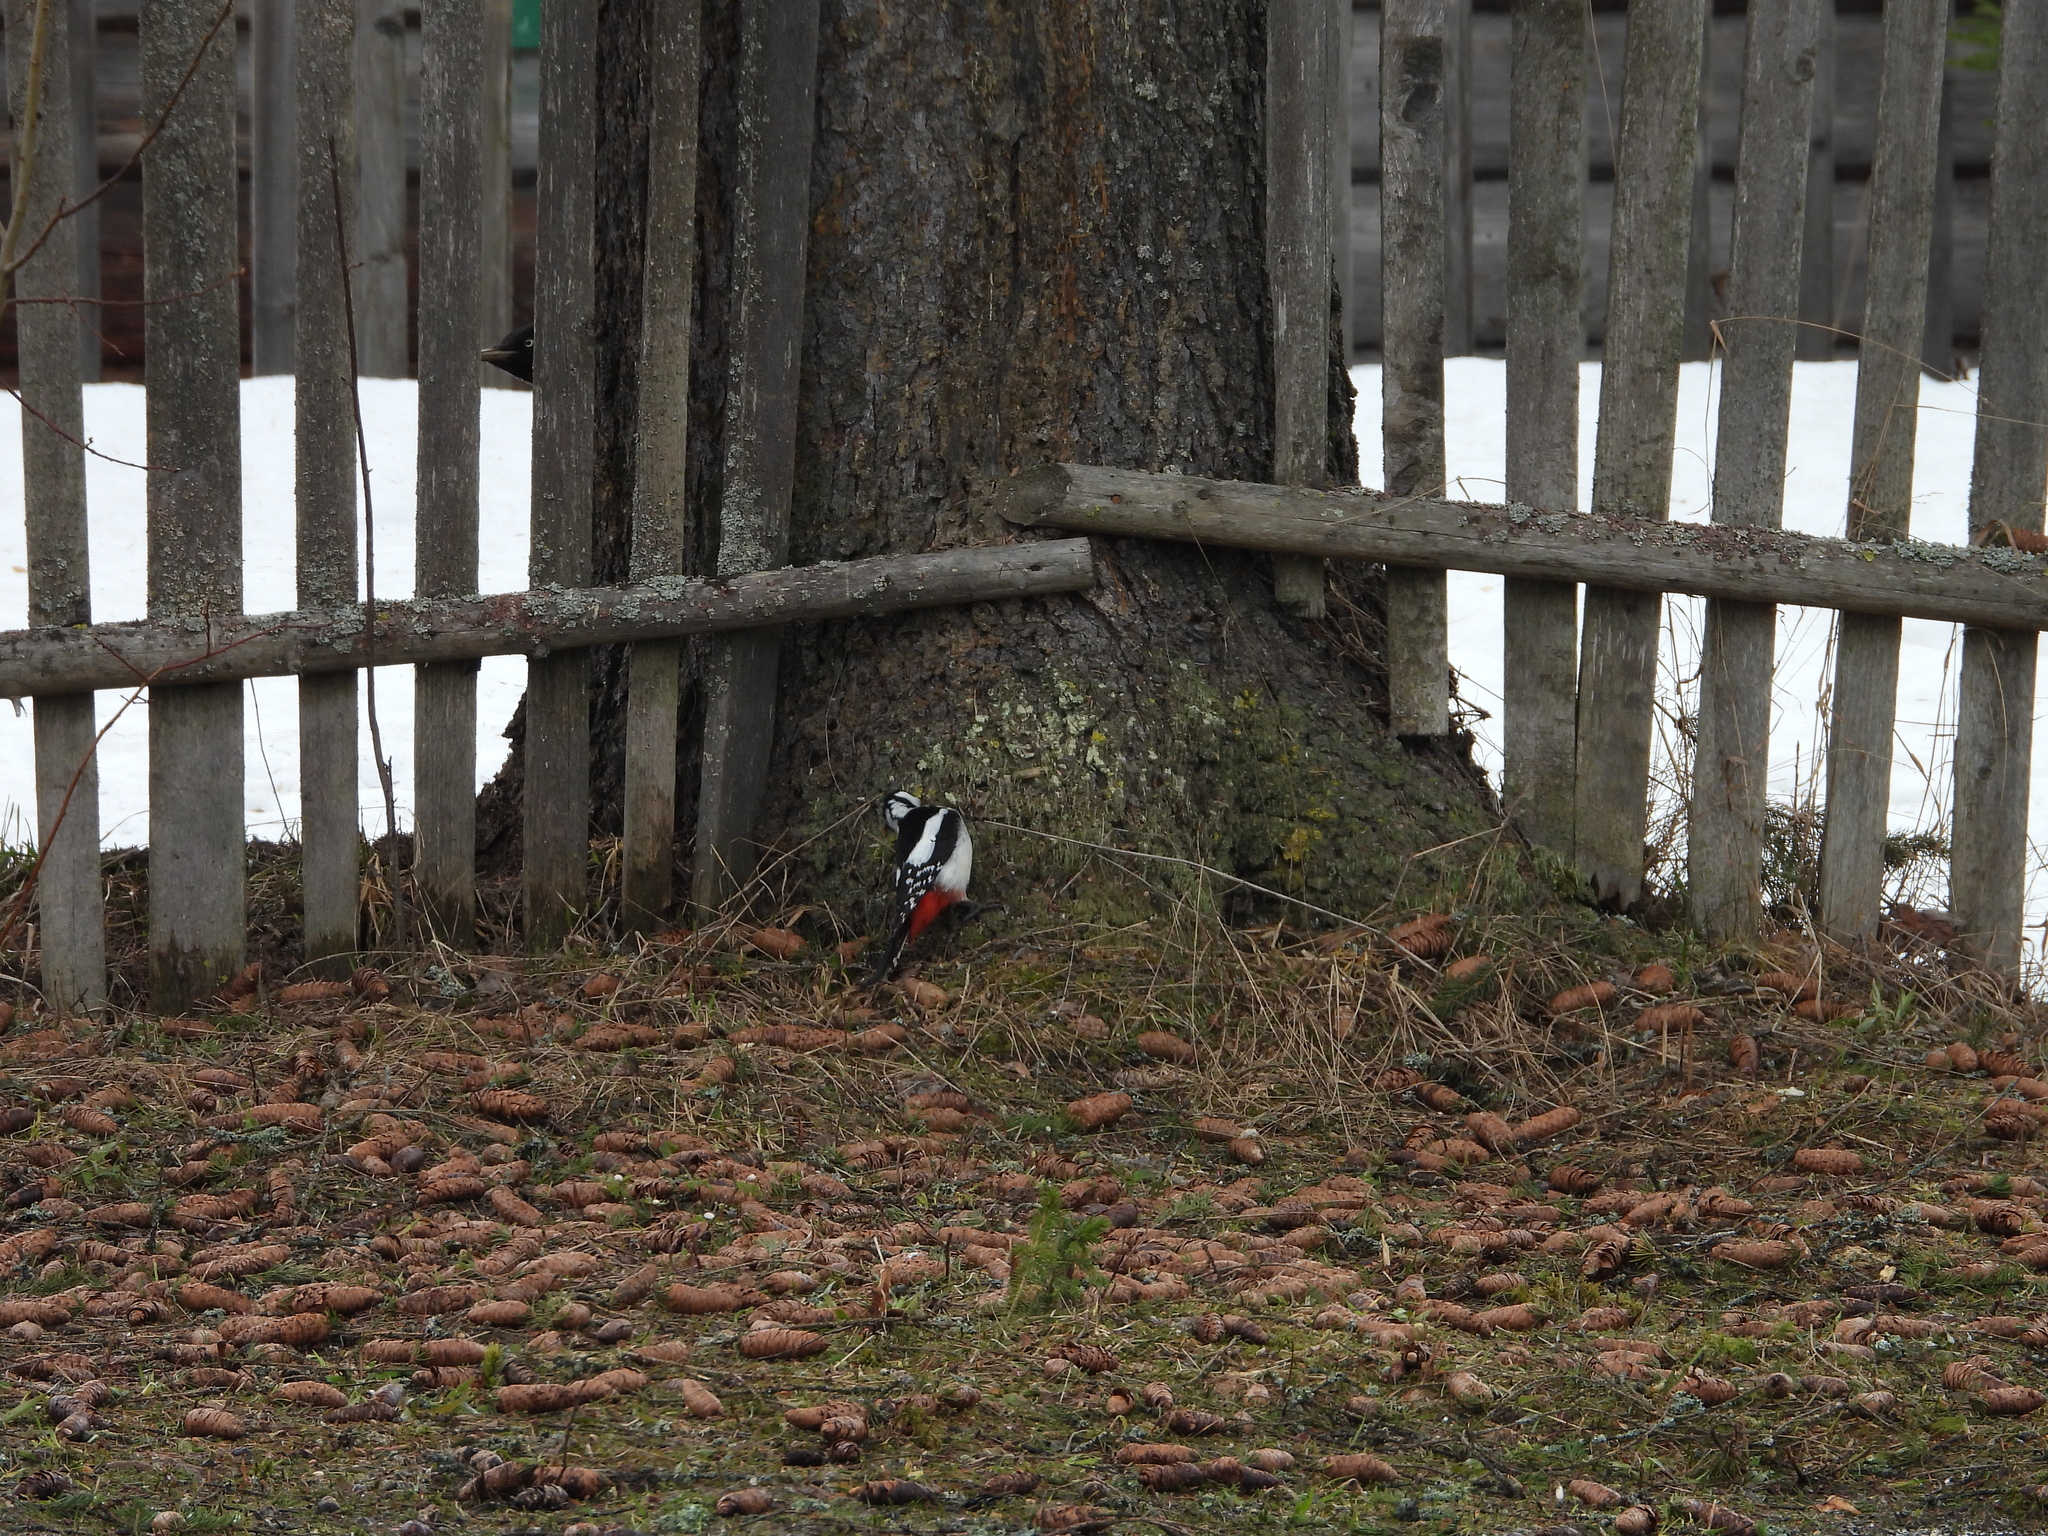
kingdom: Animalia
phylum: Chordata
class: Aves
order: Piciformes
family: Picidae
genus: Dendrocopos
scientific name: Dendrocopos major
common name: Great spotted woodpecker
